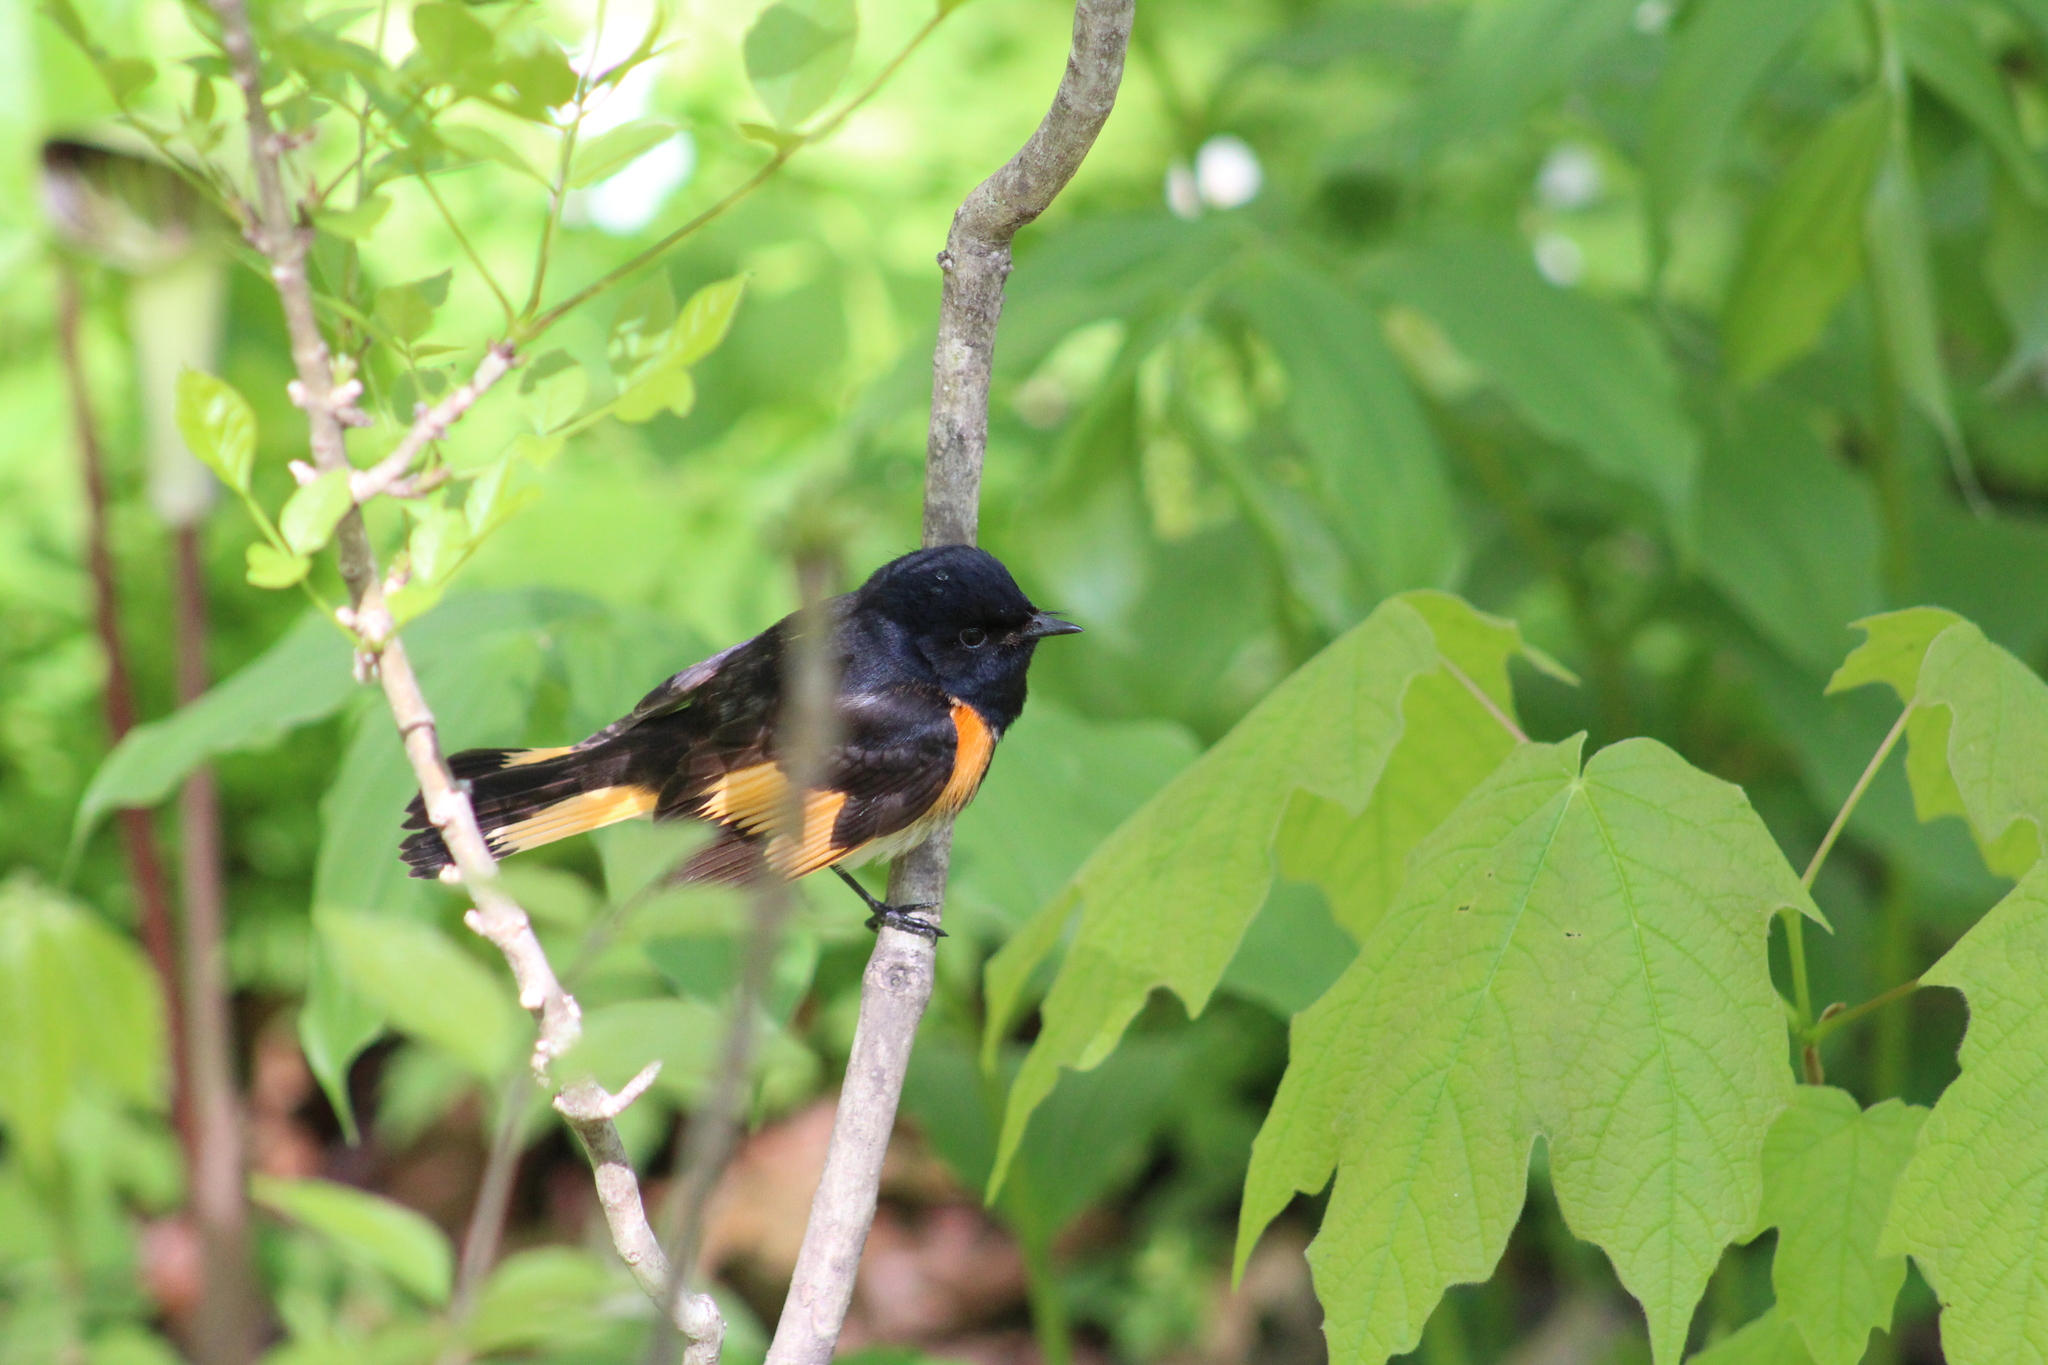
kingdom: Animalia
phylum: Chordata
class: Aves
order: Passeriformes
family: Parulidae
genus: Setophaga
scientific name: Setophaga ruticilla
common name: American redstart
